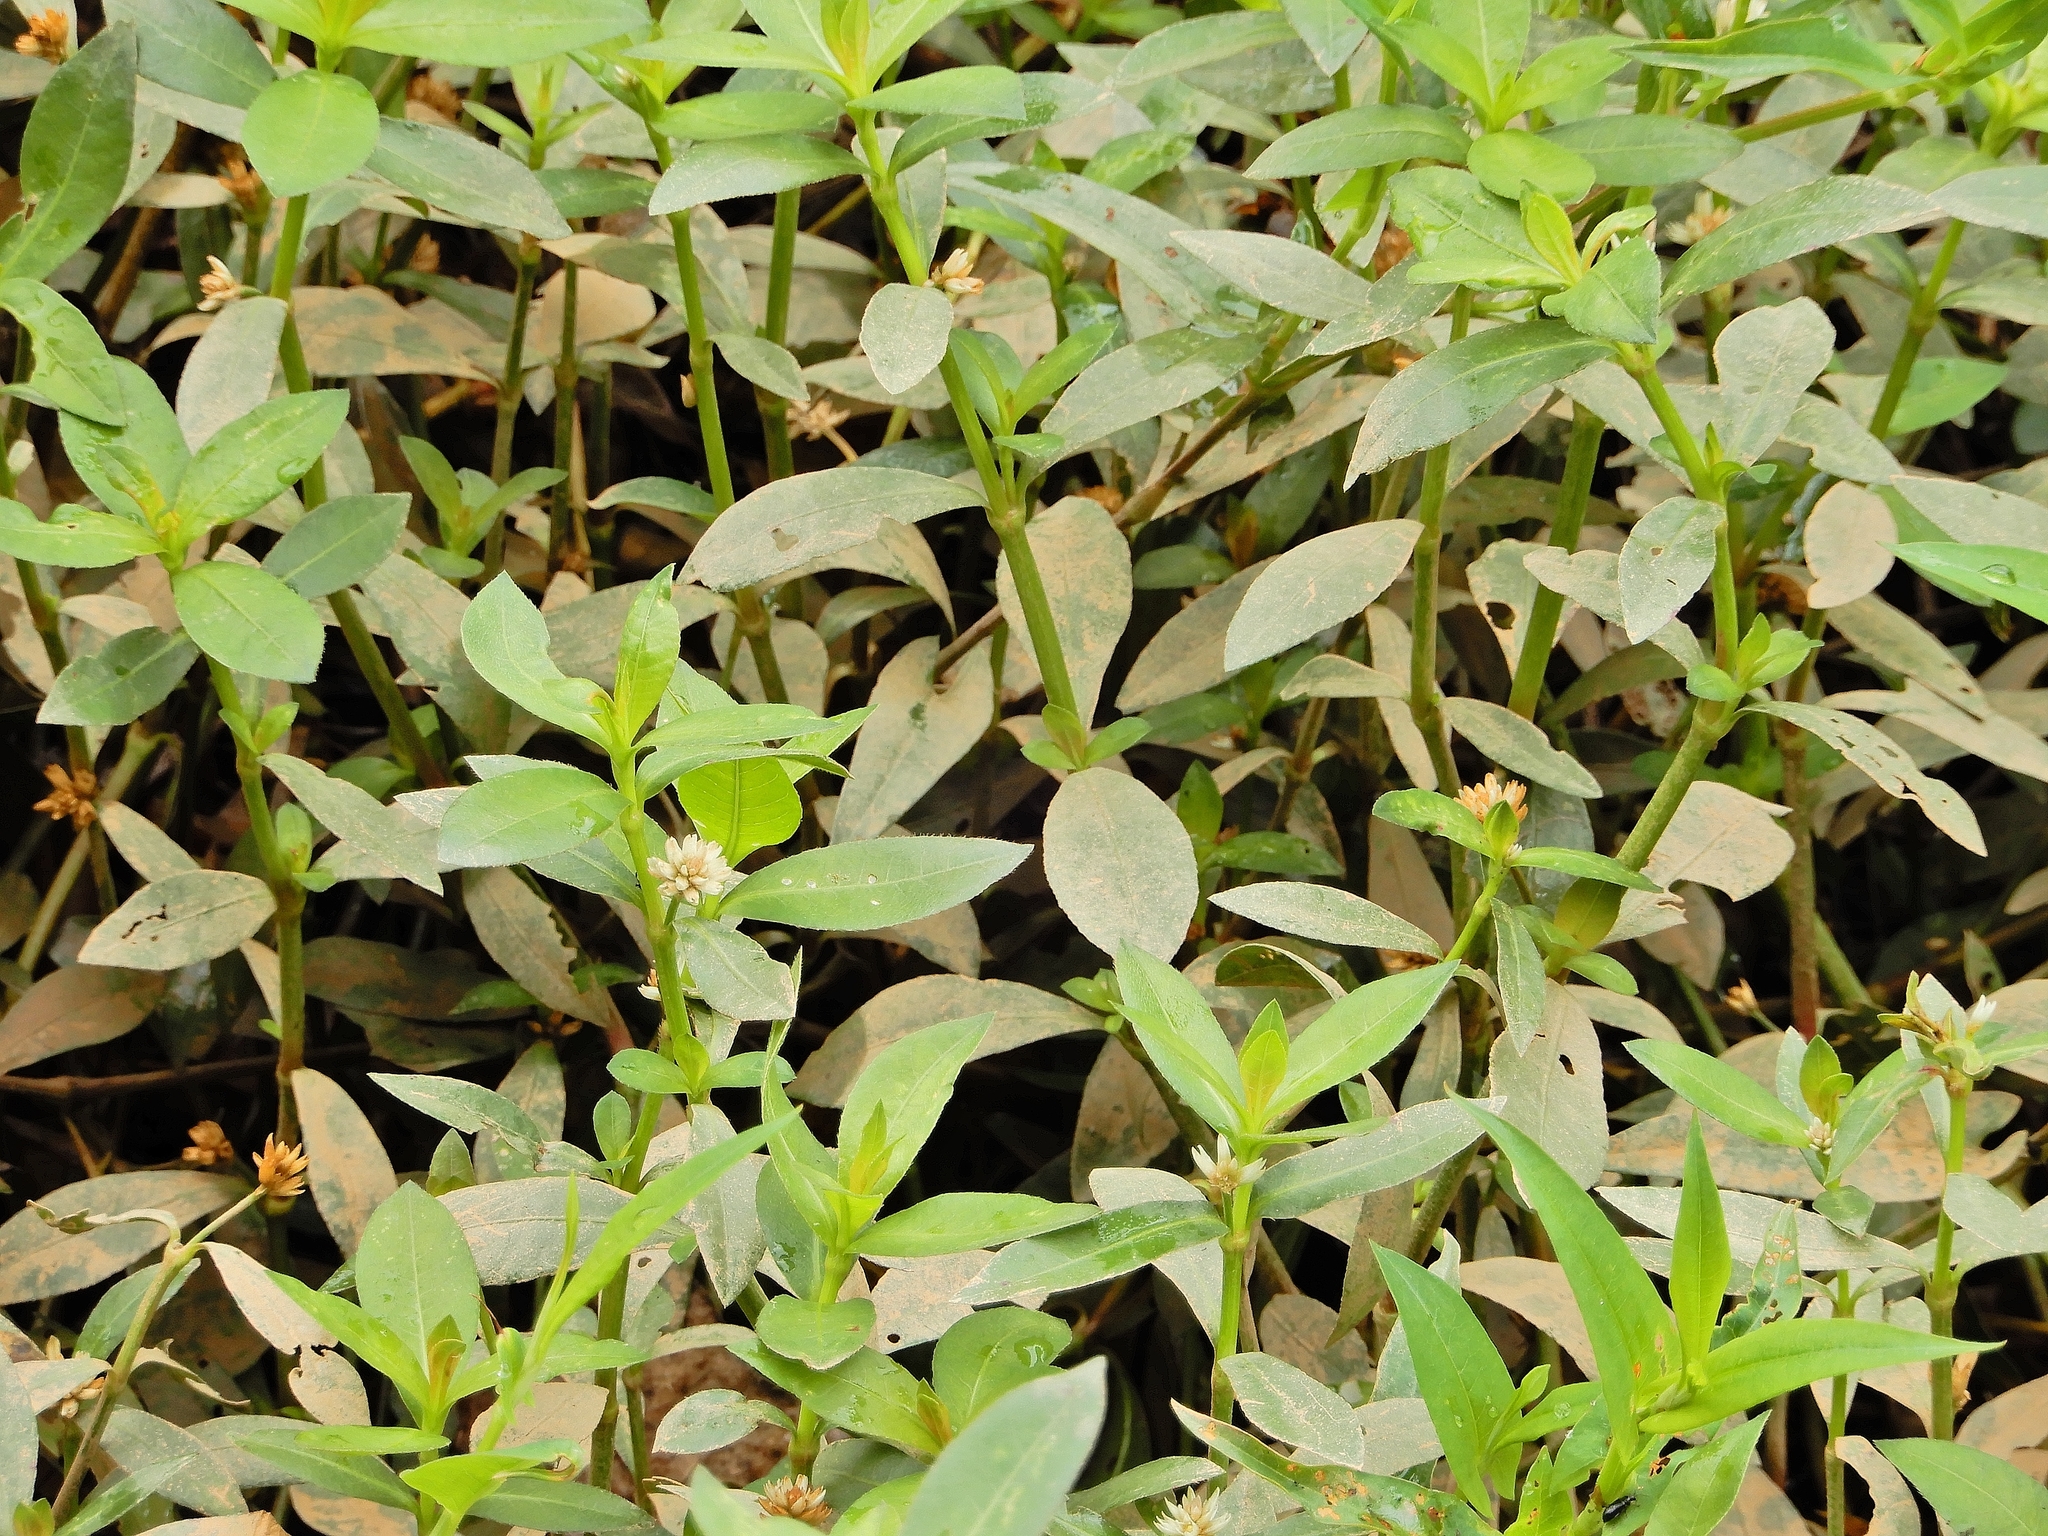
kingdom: Plantae
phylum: Tracheophyta
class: Magnoliopsida
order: Caryophyllales
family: Amaranthaceae
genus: Alternanthera
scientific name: Alternanthera philoxeroides
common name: Alligatorweed
